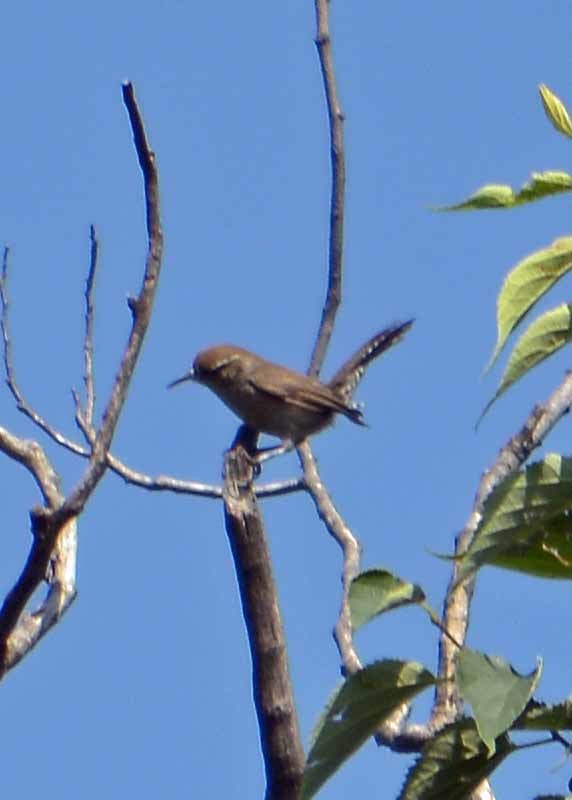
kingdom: Animalia
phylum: Chordata
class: Aves
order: Passeriformes
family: Troglodytidae
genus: Thryomanes
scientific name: Thryomanes bewickii
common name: Bewick's wren
